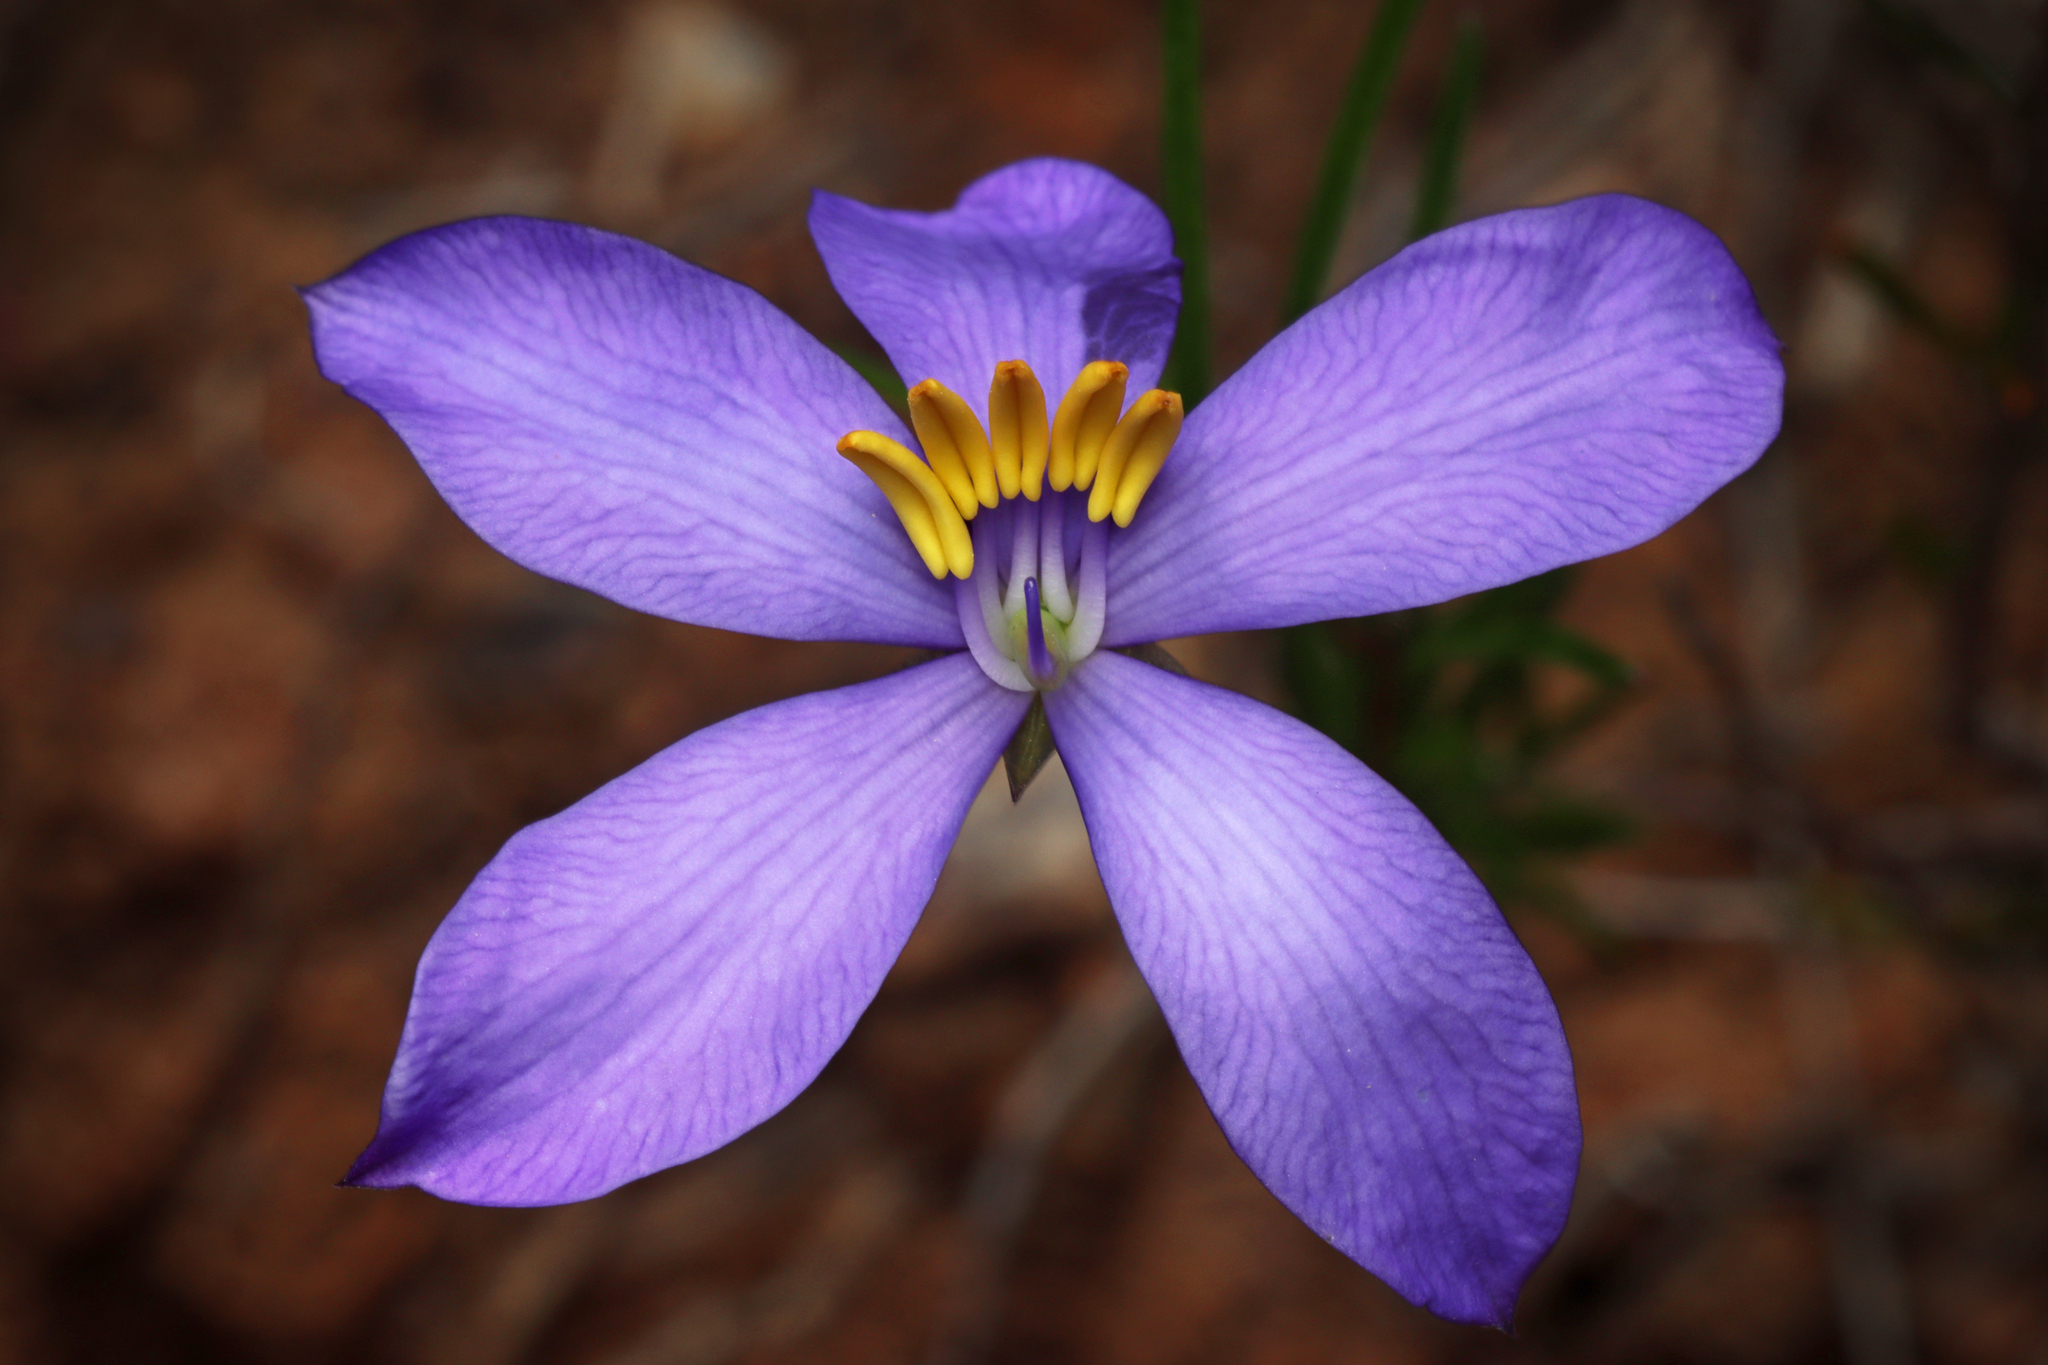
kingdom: Plantae
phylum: Tracheophyta
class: Magnoliopsida
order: Apiales
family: Pittosporaceae
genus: Cheiranthera
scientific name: Cheiranthera alternifolia
